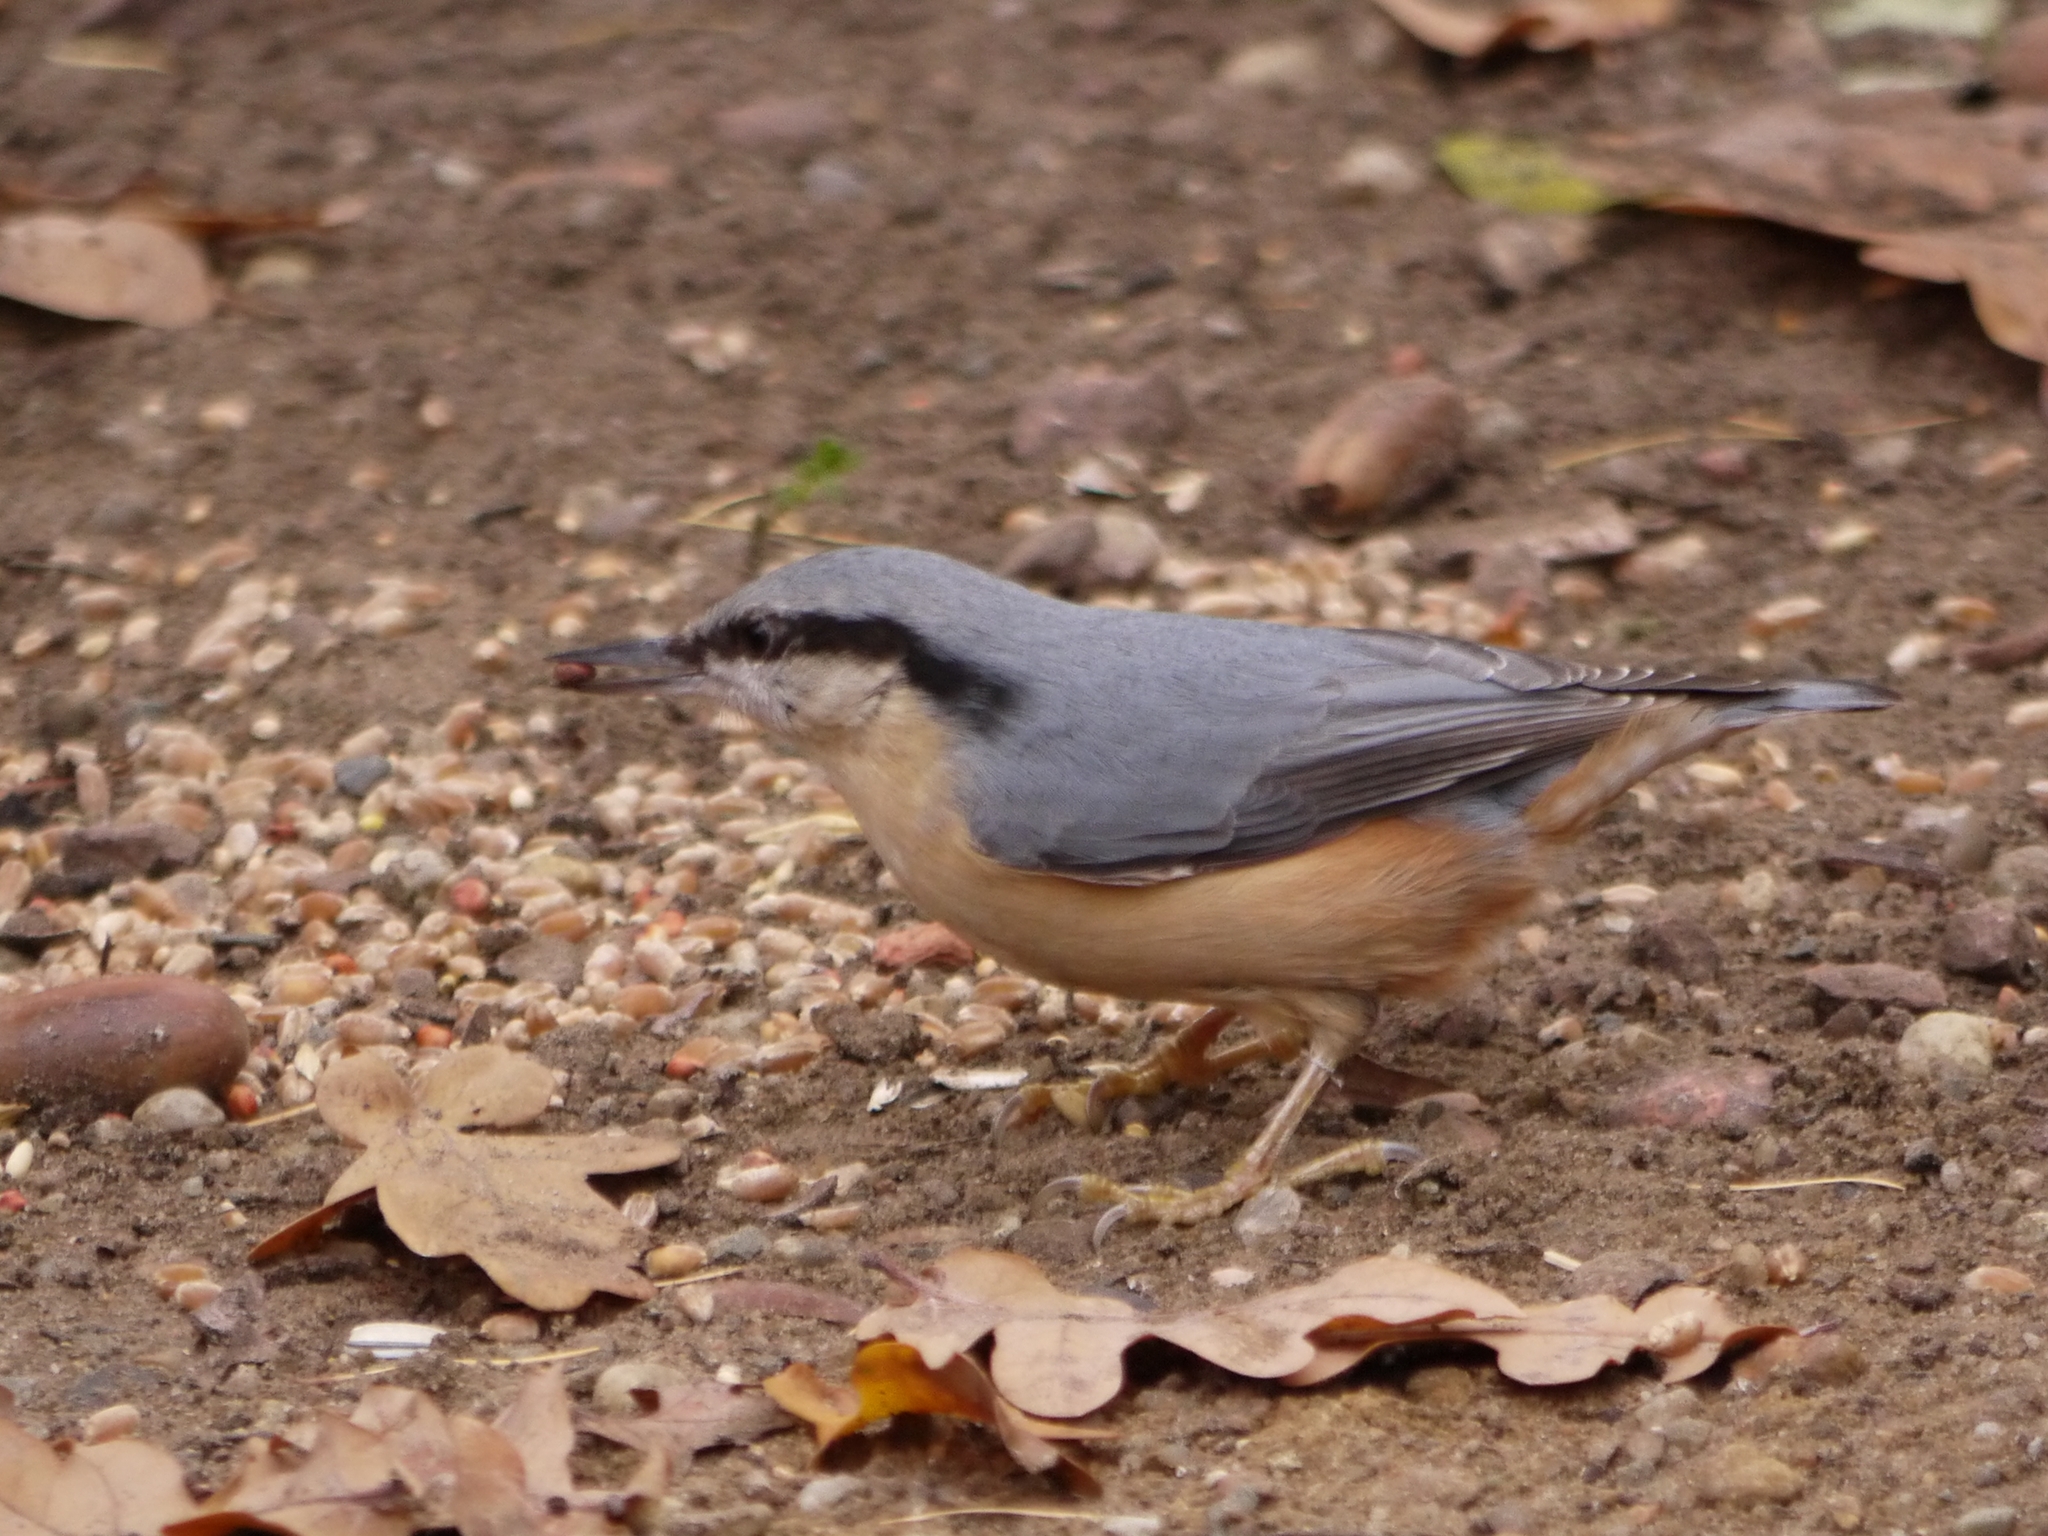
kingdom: Animalia
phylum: Chordata
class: Aves
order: Passeriformes
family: Sittidae
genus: Sitta
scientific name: Sitta europaea
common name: Eurasian nuthatch
